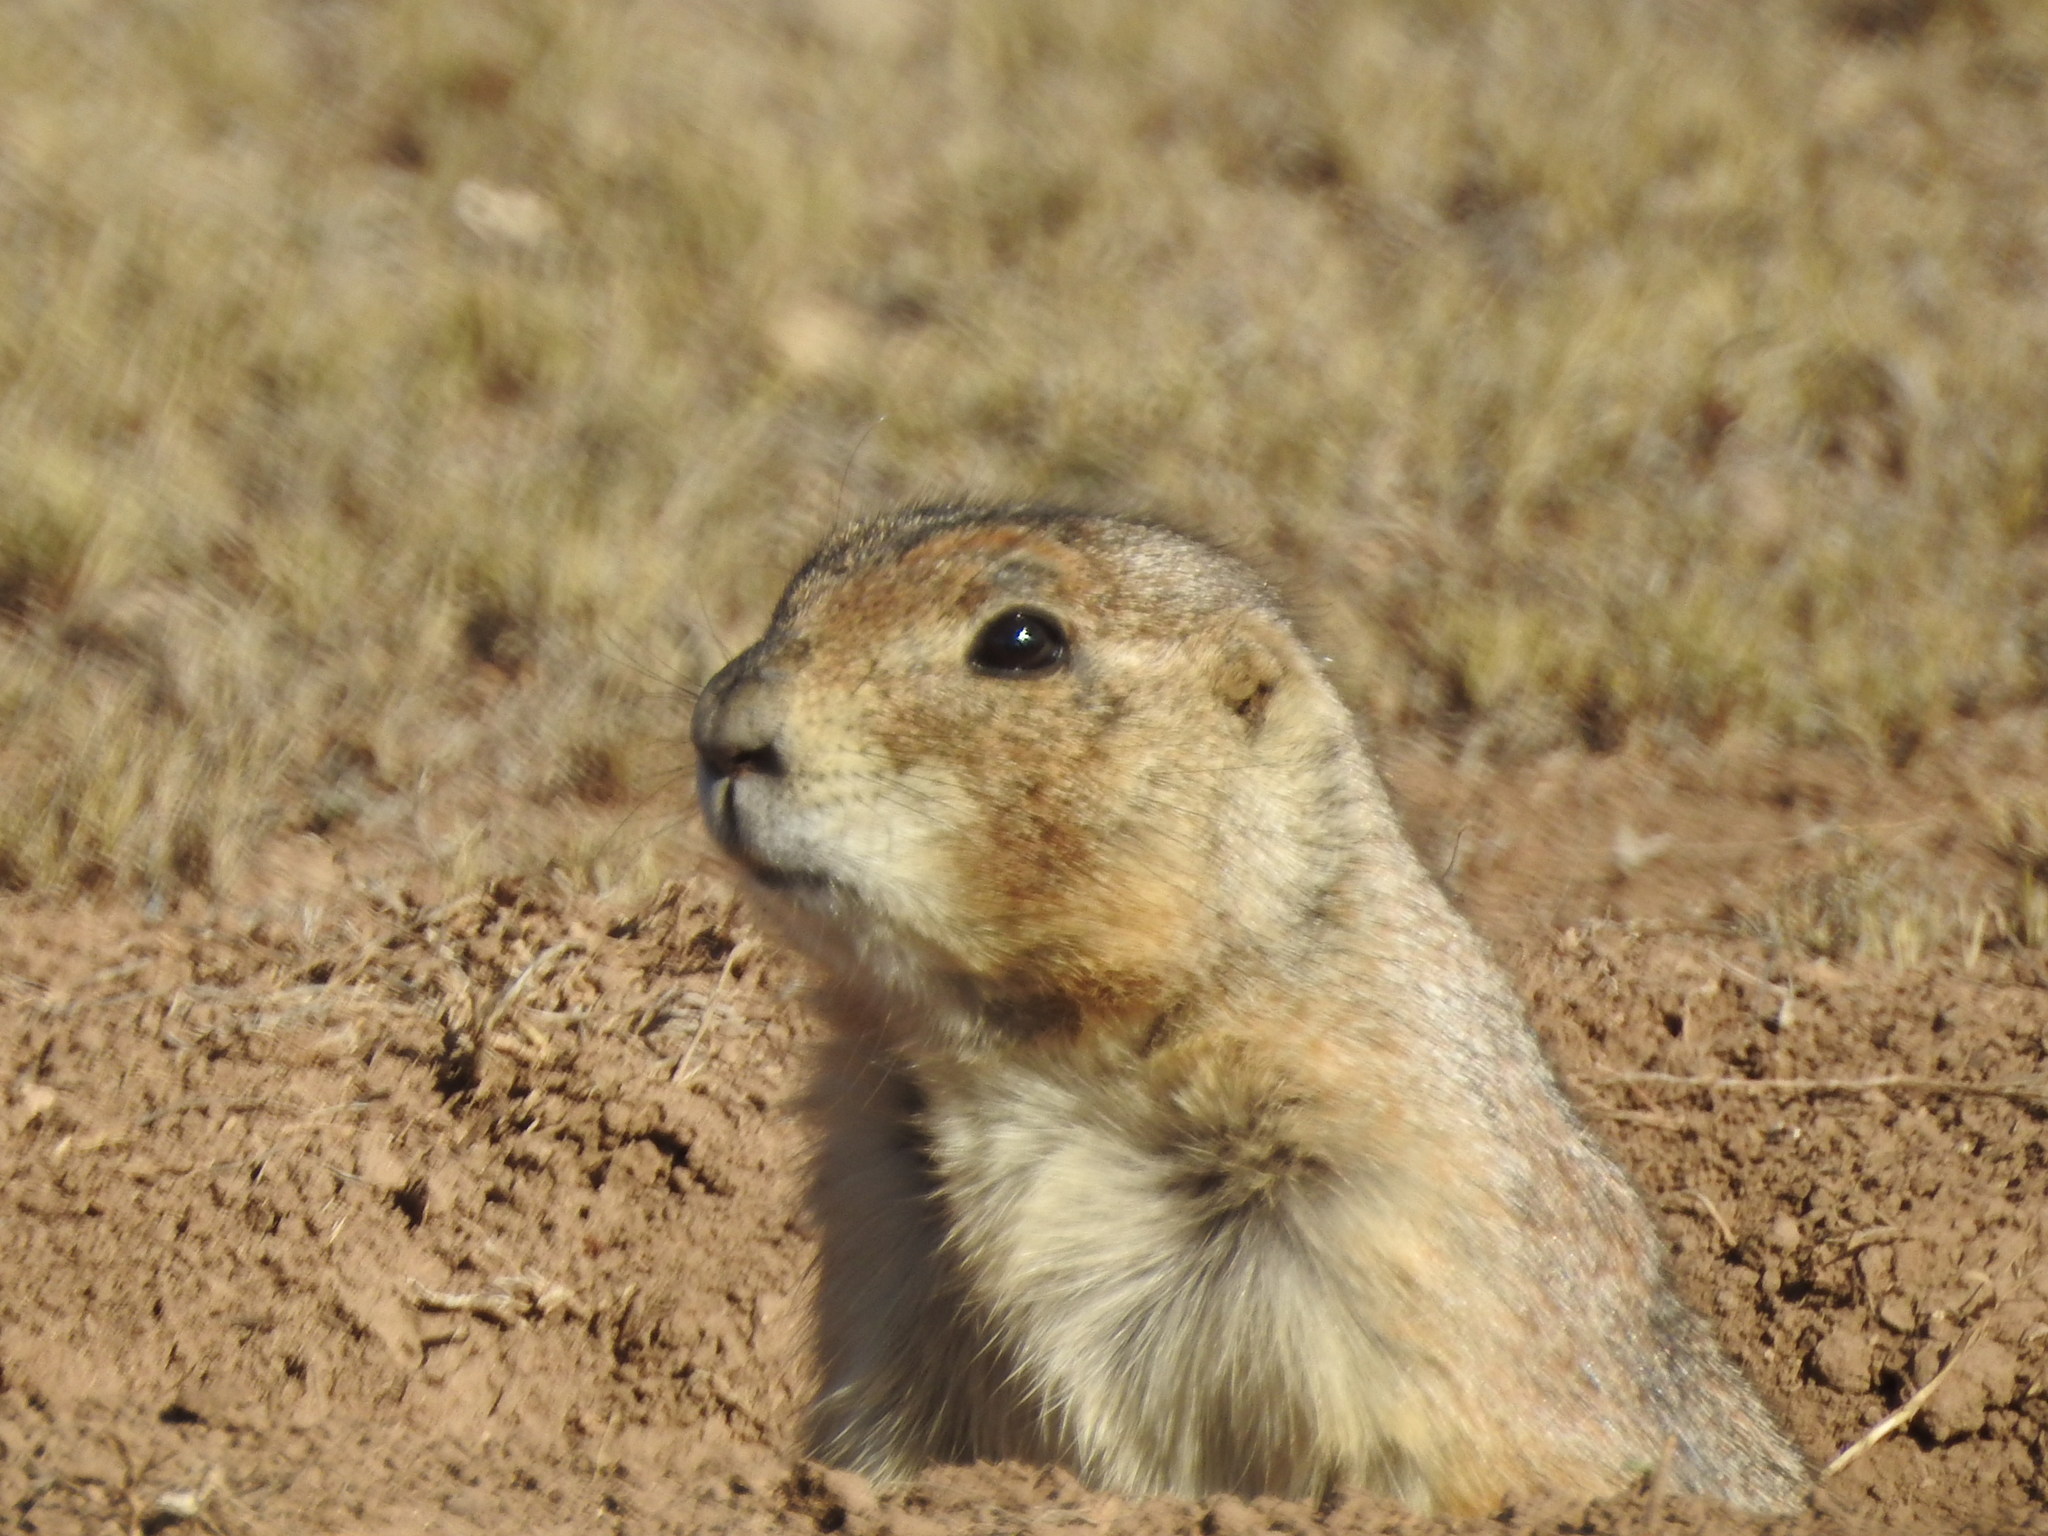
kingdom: Animalia
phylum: Chordata
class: Mammalia
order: Rodentia
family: Sciuridae
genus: Cynomys
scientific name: Cynomys mexicanus
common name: Mexican prairie dog
